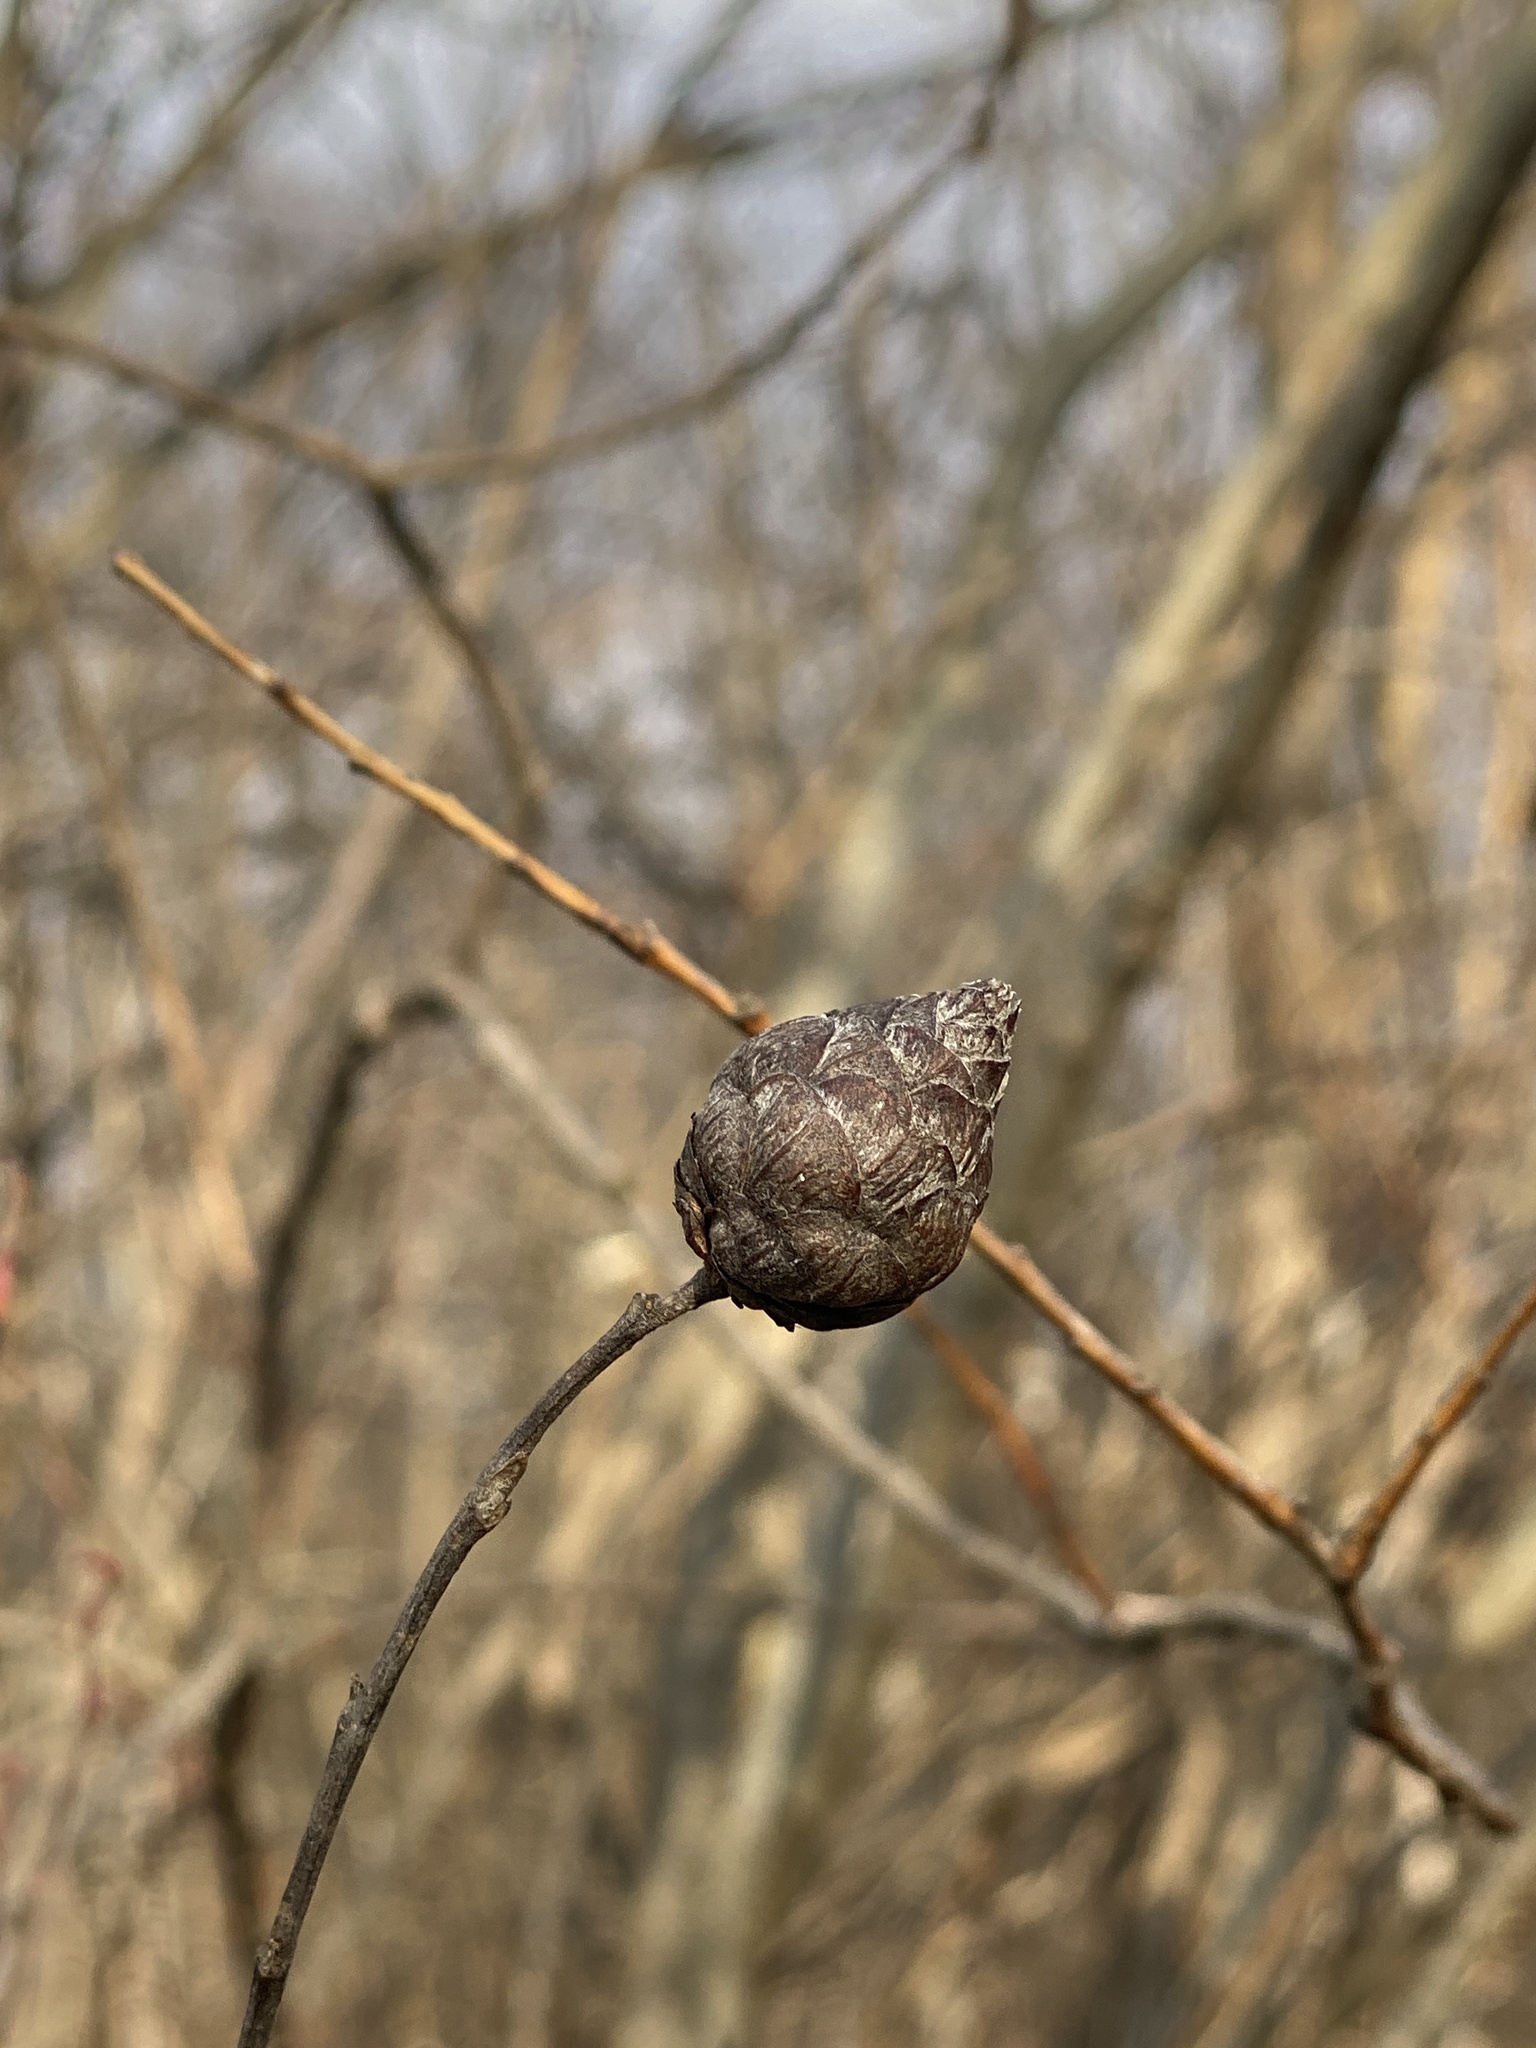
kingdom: Animalia
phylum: Arthropoda
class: Insecta
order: Diptera
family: Cecidomyiidae
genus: Rabdophaga
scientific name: Rabdophaga strobiloides
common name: Willow pinecone gall midge
